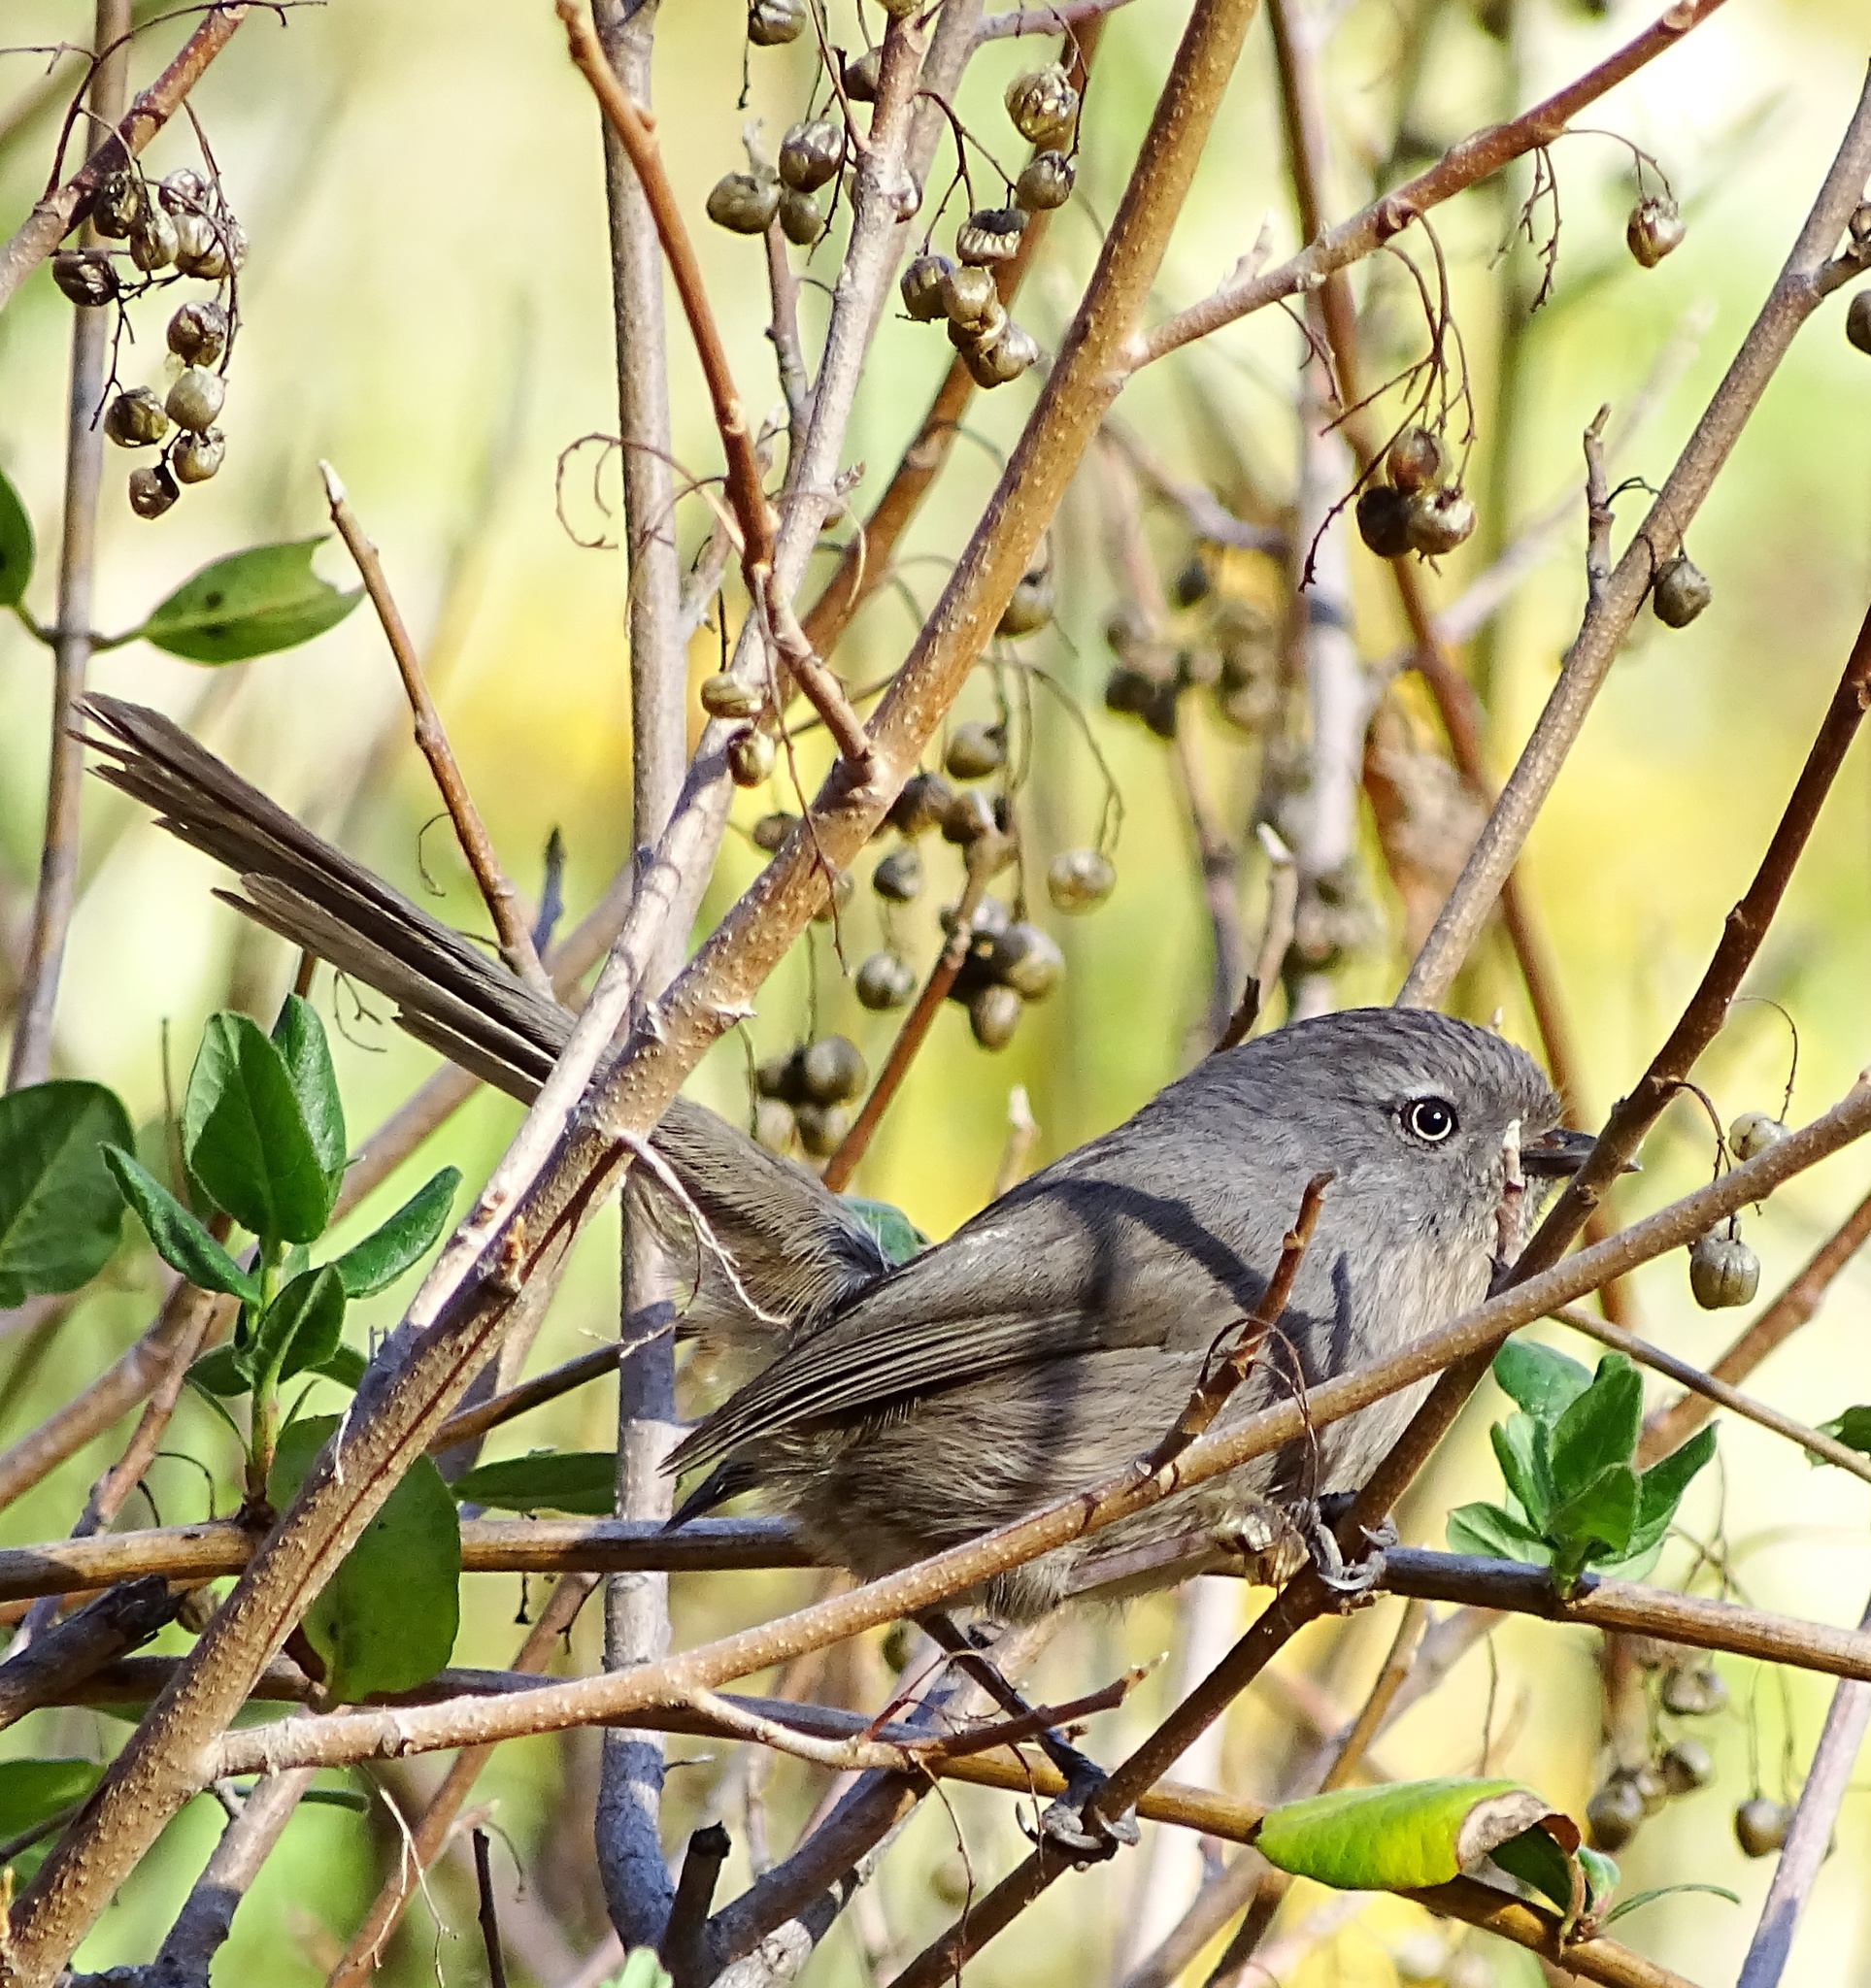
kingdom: Animalia
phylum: Chordata
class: Aves
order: Passeriformes
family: Sylviidae
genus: Chamaea
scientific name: Chamaea fasciata
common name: Wrentit
